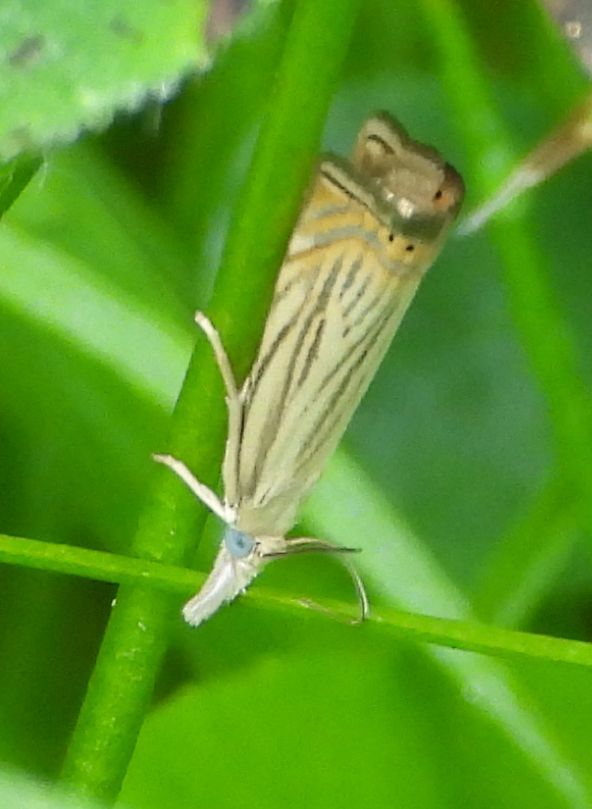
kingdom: Animalia
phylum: Arthropoda
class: Insecta
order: Lepidoptera
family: Crambidae
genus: Chrysoteuchia
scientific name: Chrysoteuchia topiarius
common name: Topiary grass-veneer
